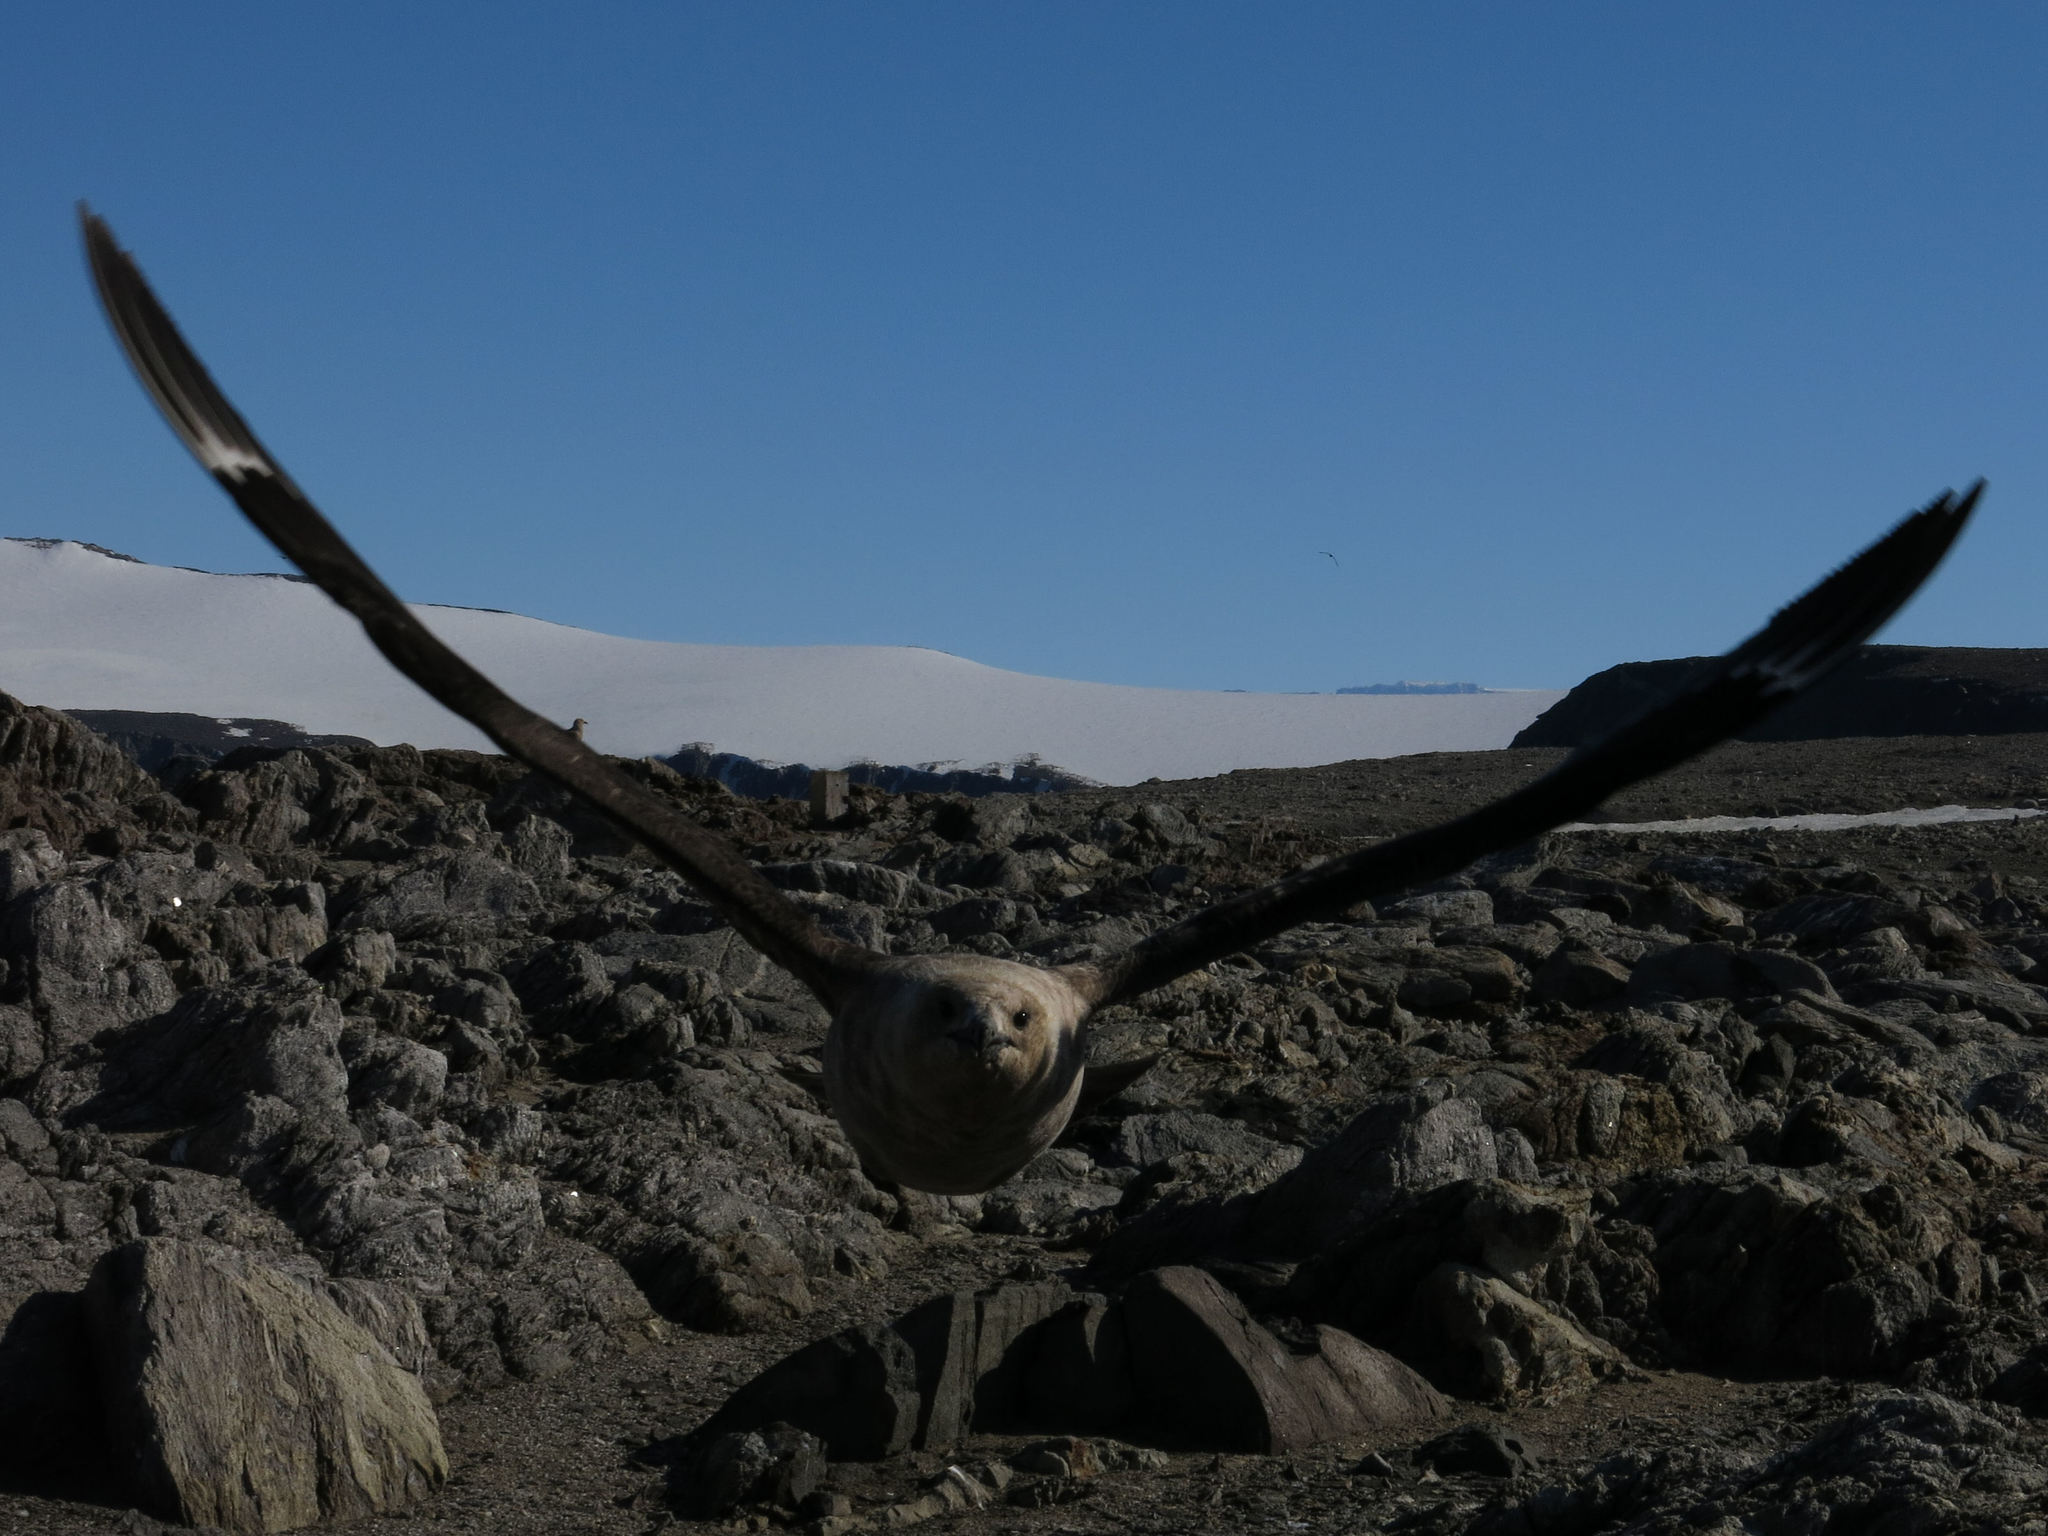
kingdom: Animalia
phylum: Chordata
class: Aves
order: Charadriiformes
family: Stercorariidae
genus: Stercorarius
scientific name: Stercorarius maccormicki
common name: South polar skua
